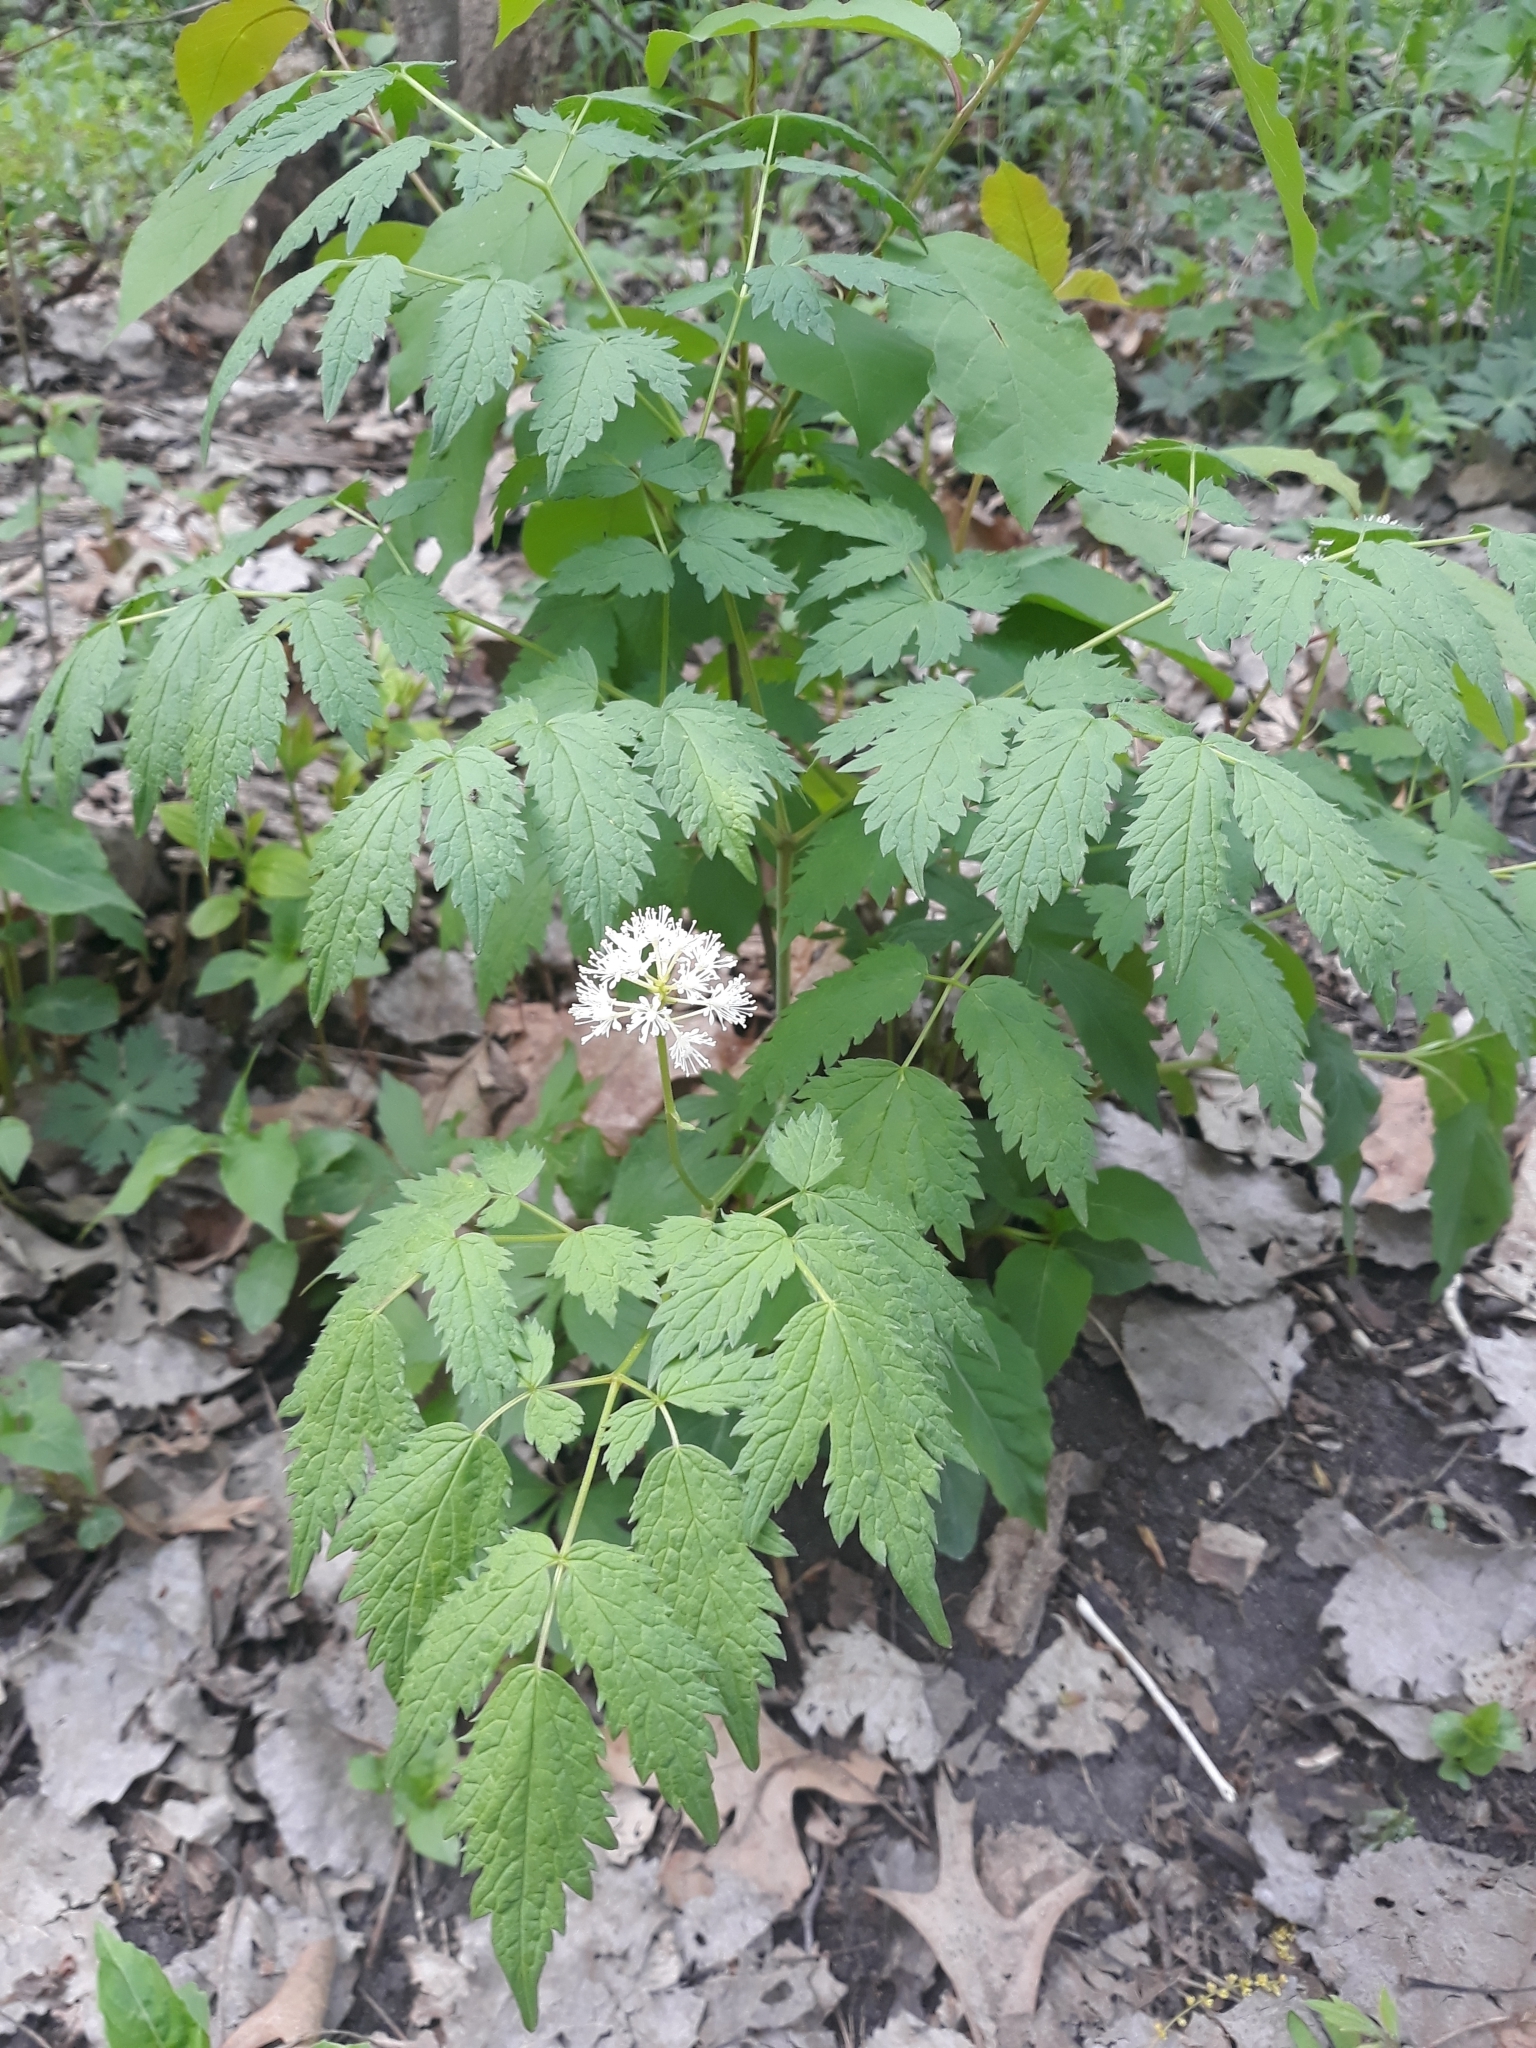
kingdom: Plantae
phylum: Tracheophyta
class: Magnoliopsida
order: Ranunculales
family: Ranunculaceae
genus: Actaea
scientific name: Actaea rubra
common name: Red baneberry
